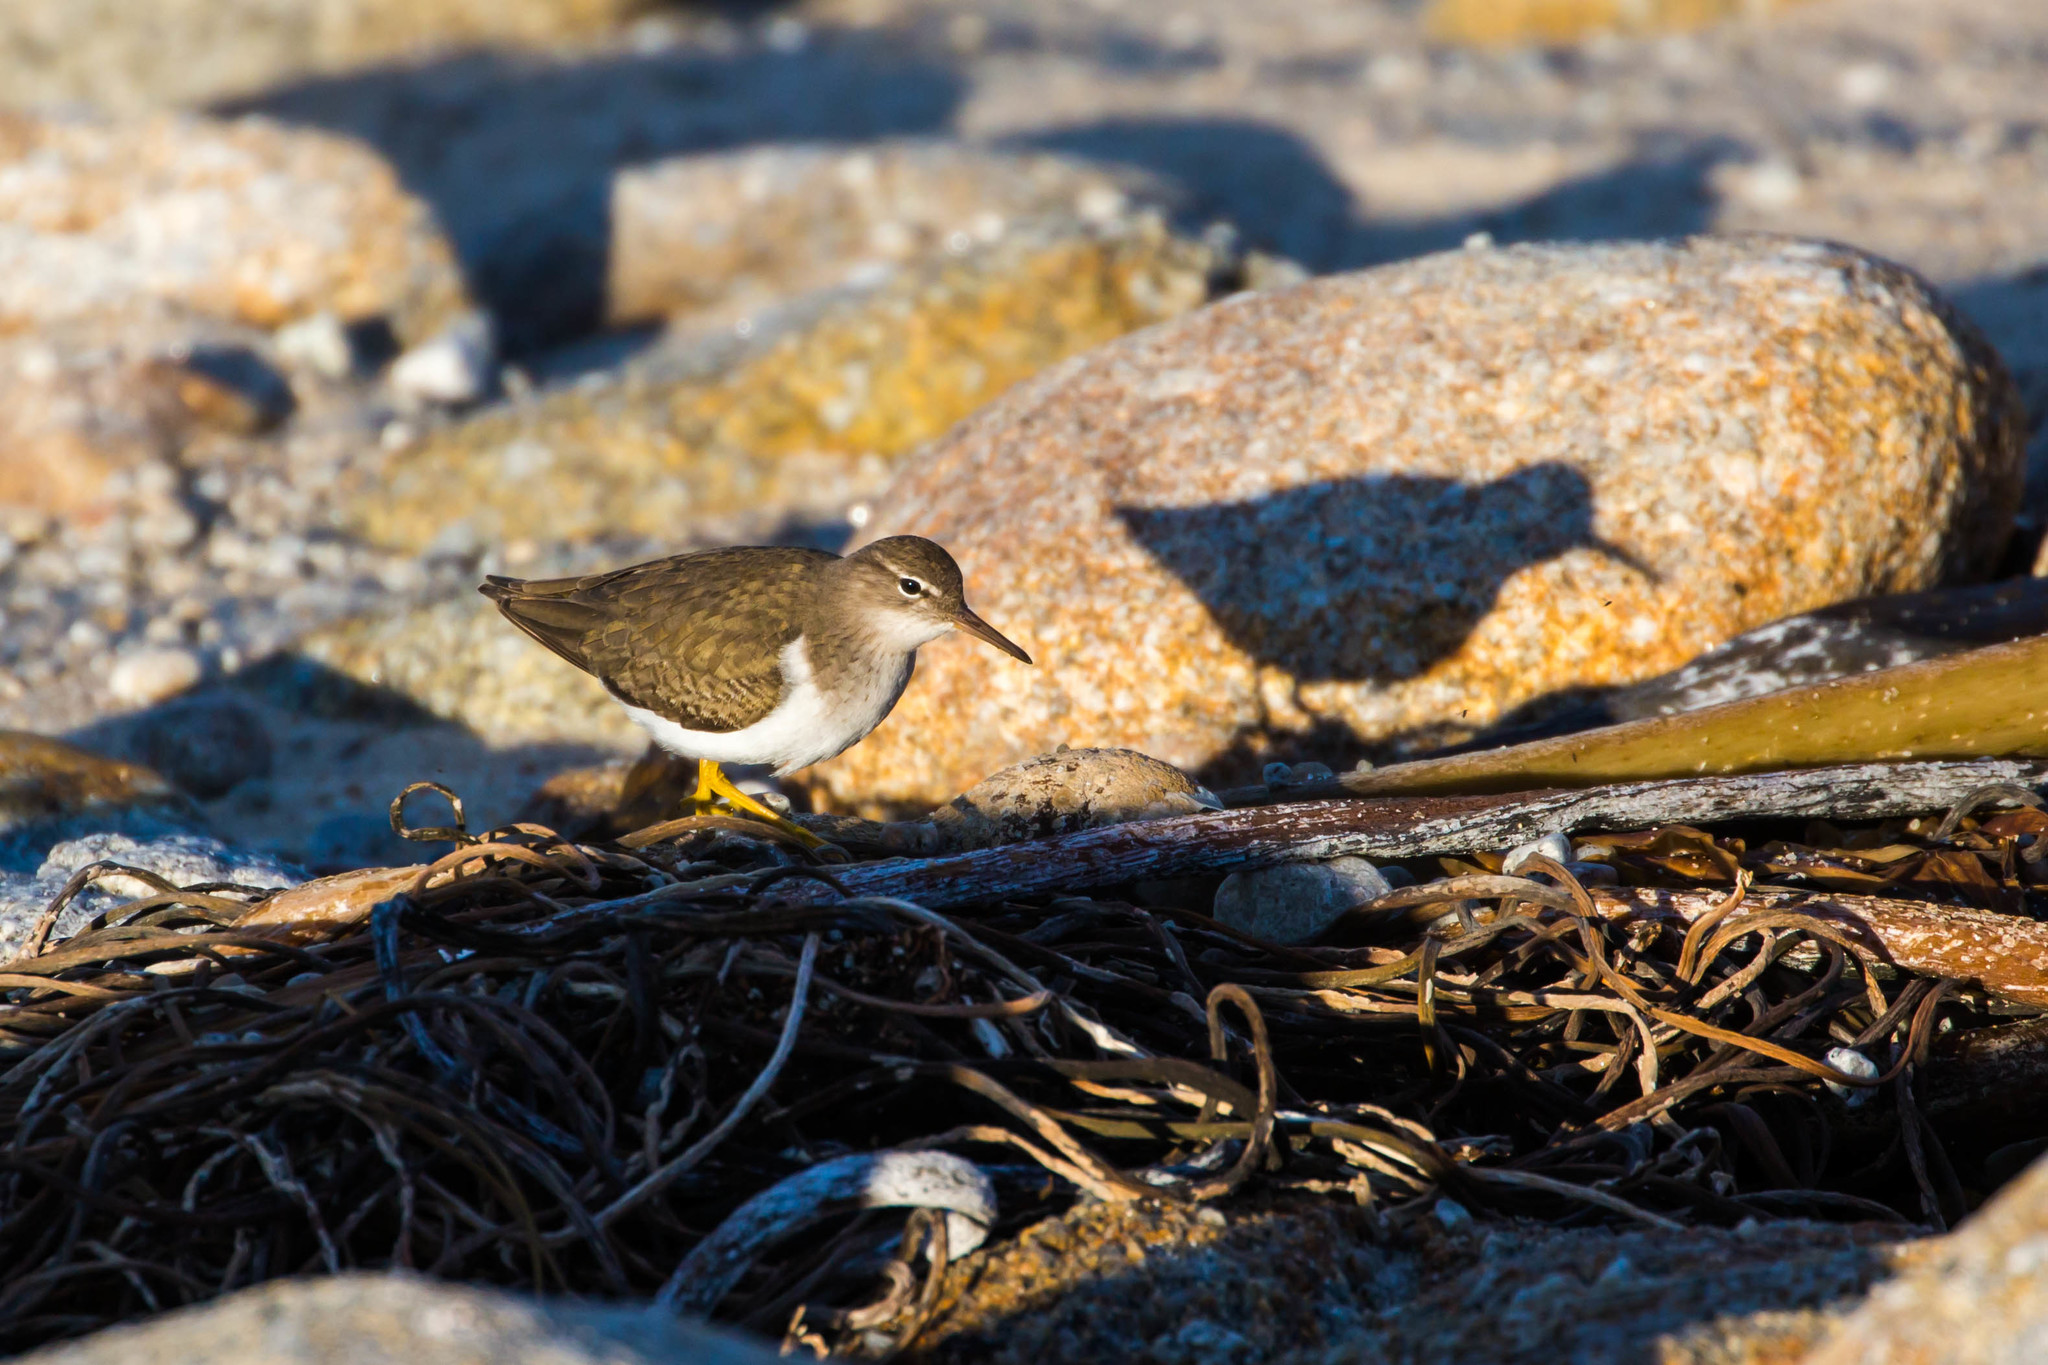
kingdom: Animalia
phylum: Chordata
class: Aves
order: Charadriiformes
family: Scolopacidae
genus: Actitis
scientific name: Actitis macularius
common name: Spotted sandpiper
